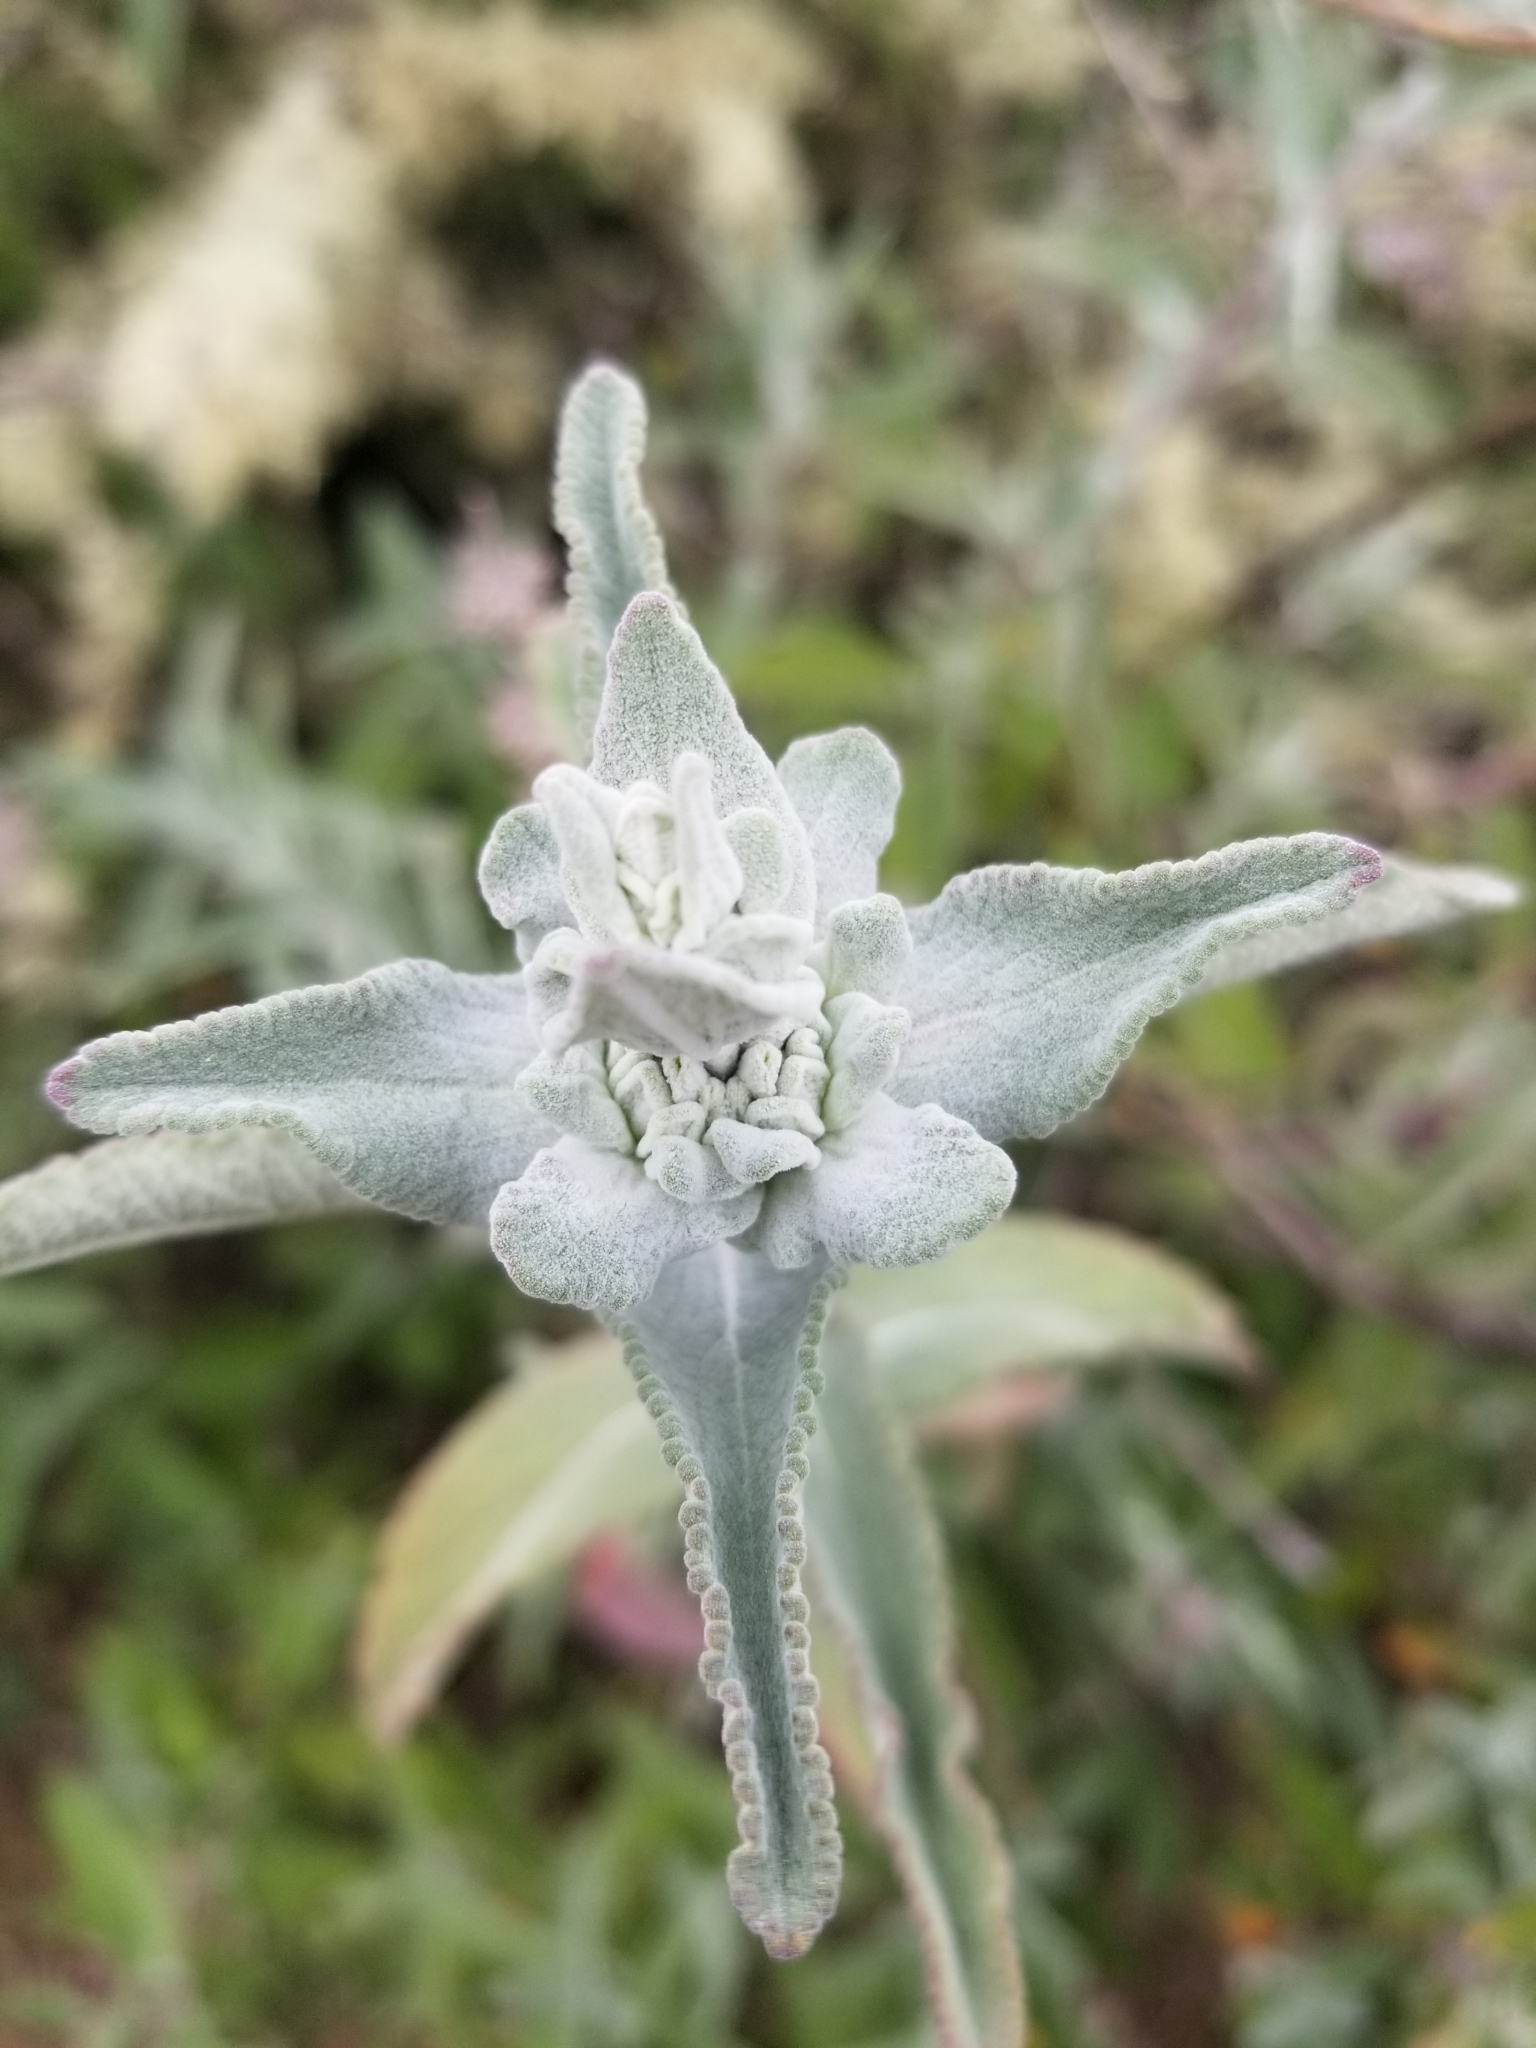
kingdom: Plantae
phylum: Tracheophyta
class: Magnoliopsida
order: Lamiales
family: Lamiaceae
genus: Salvia
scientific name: Salvia leucophylla
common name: Purple sage
